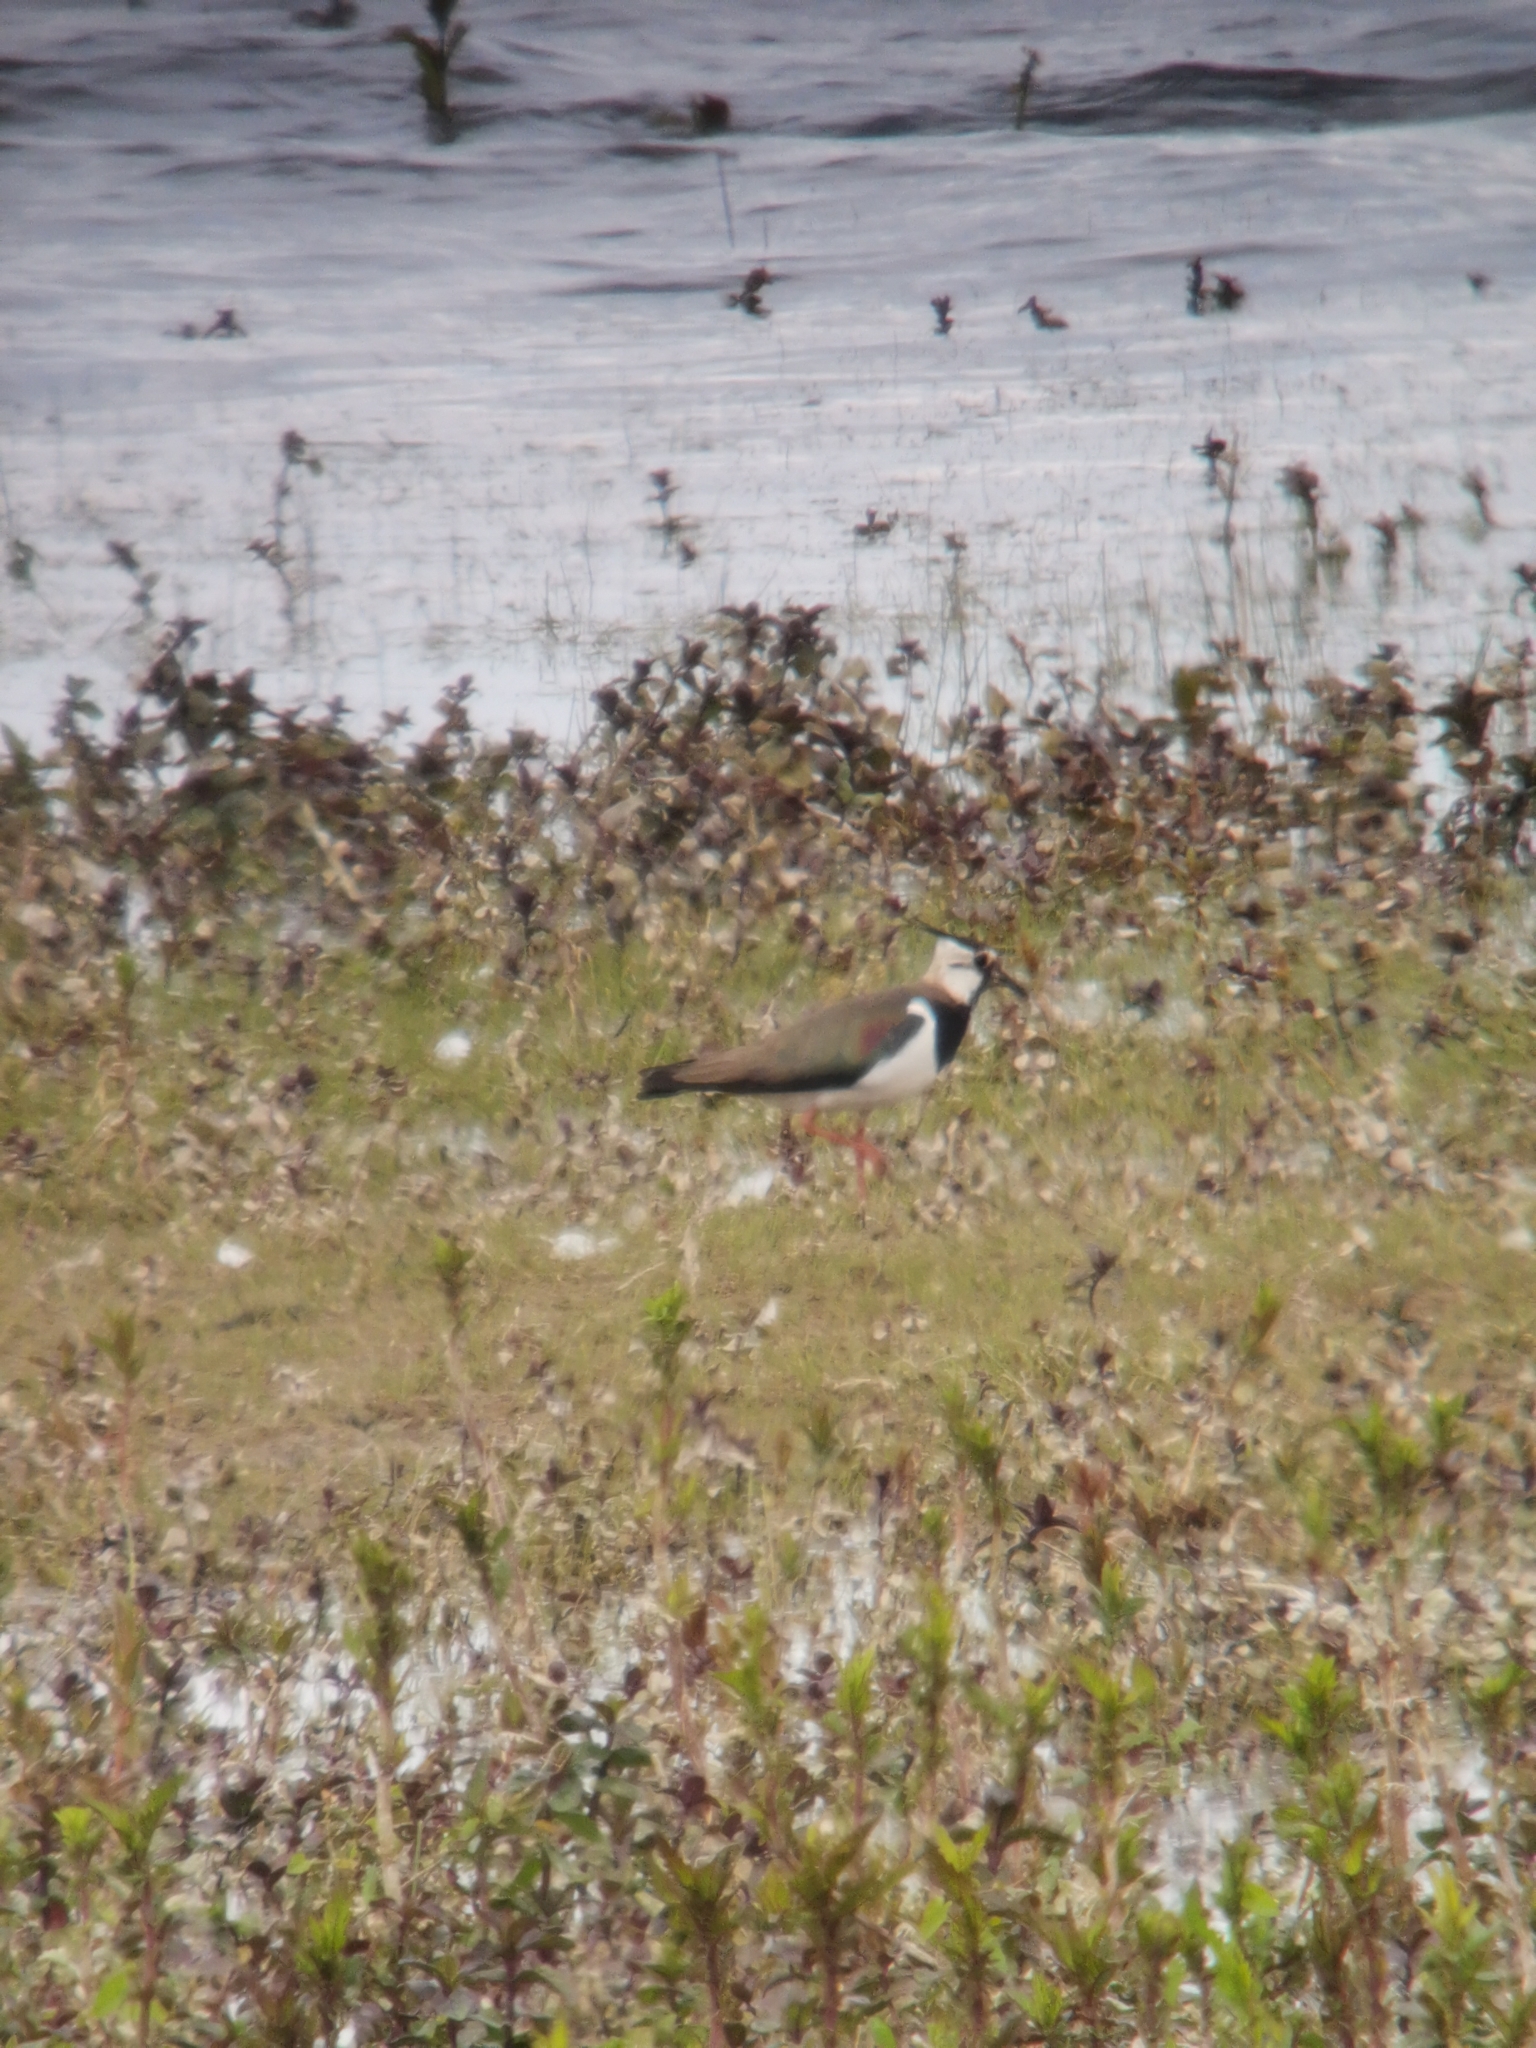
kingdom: Animalia
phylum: Chordata
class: Aves
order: Charadriiformes
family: Charadriidae
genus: Vanellus
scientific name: Vanellus vanellus
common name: Northern lapwing
